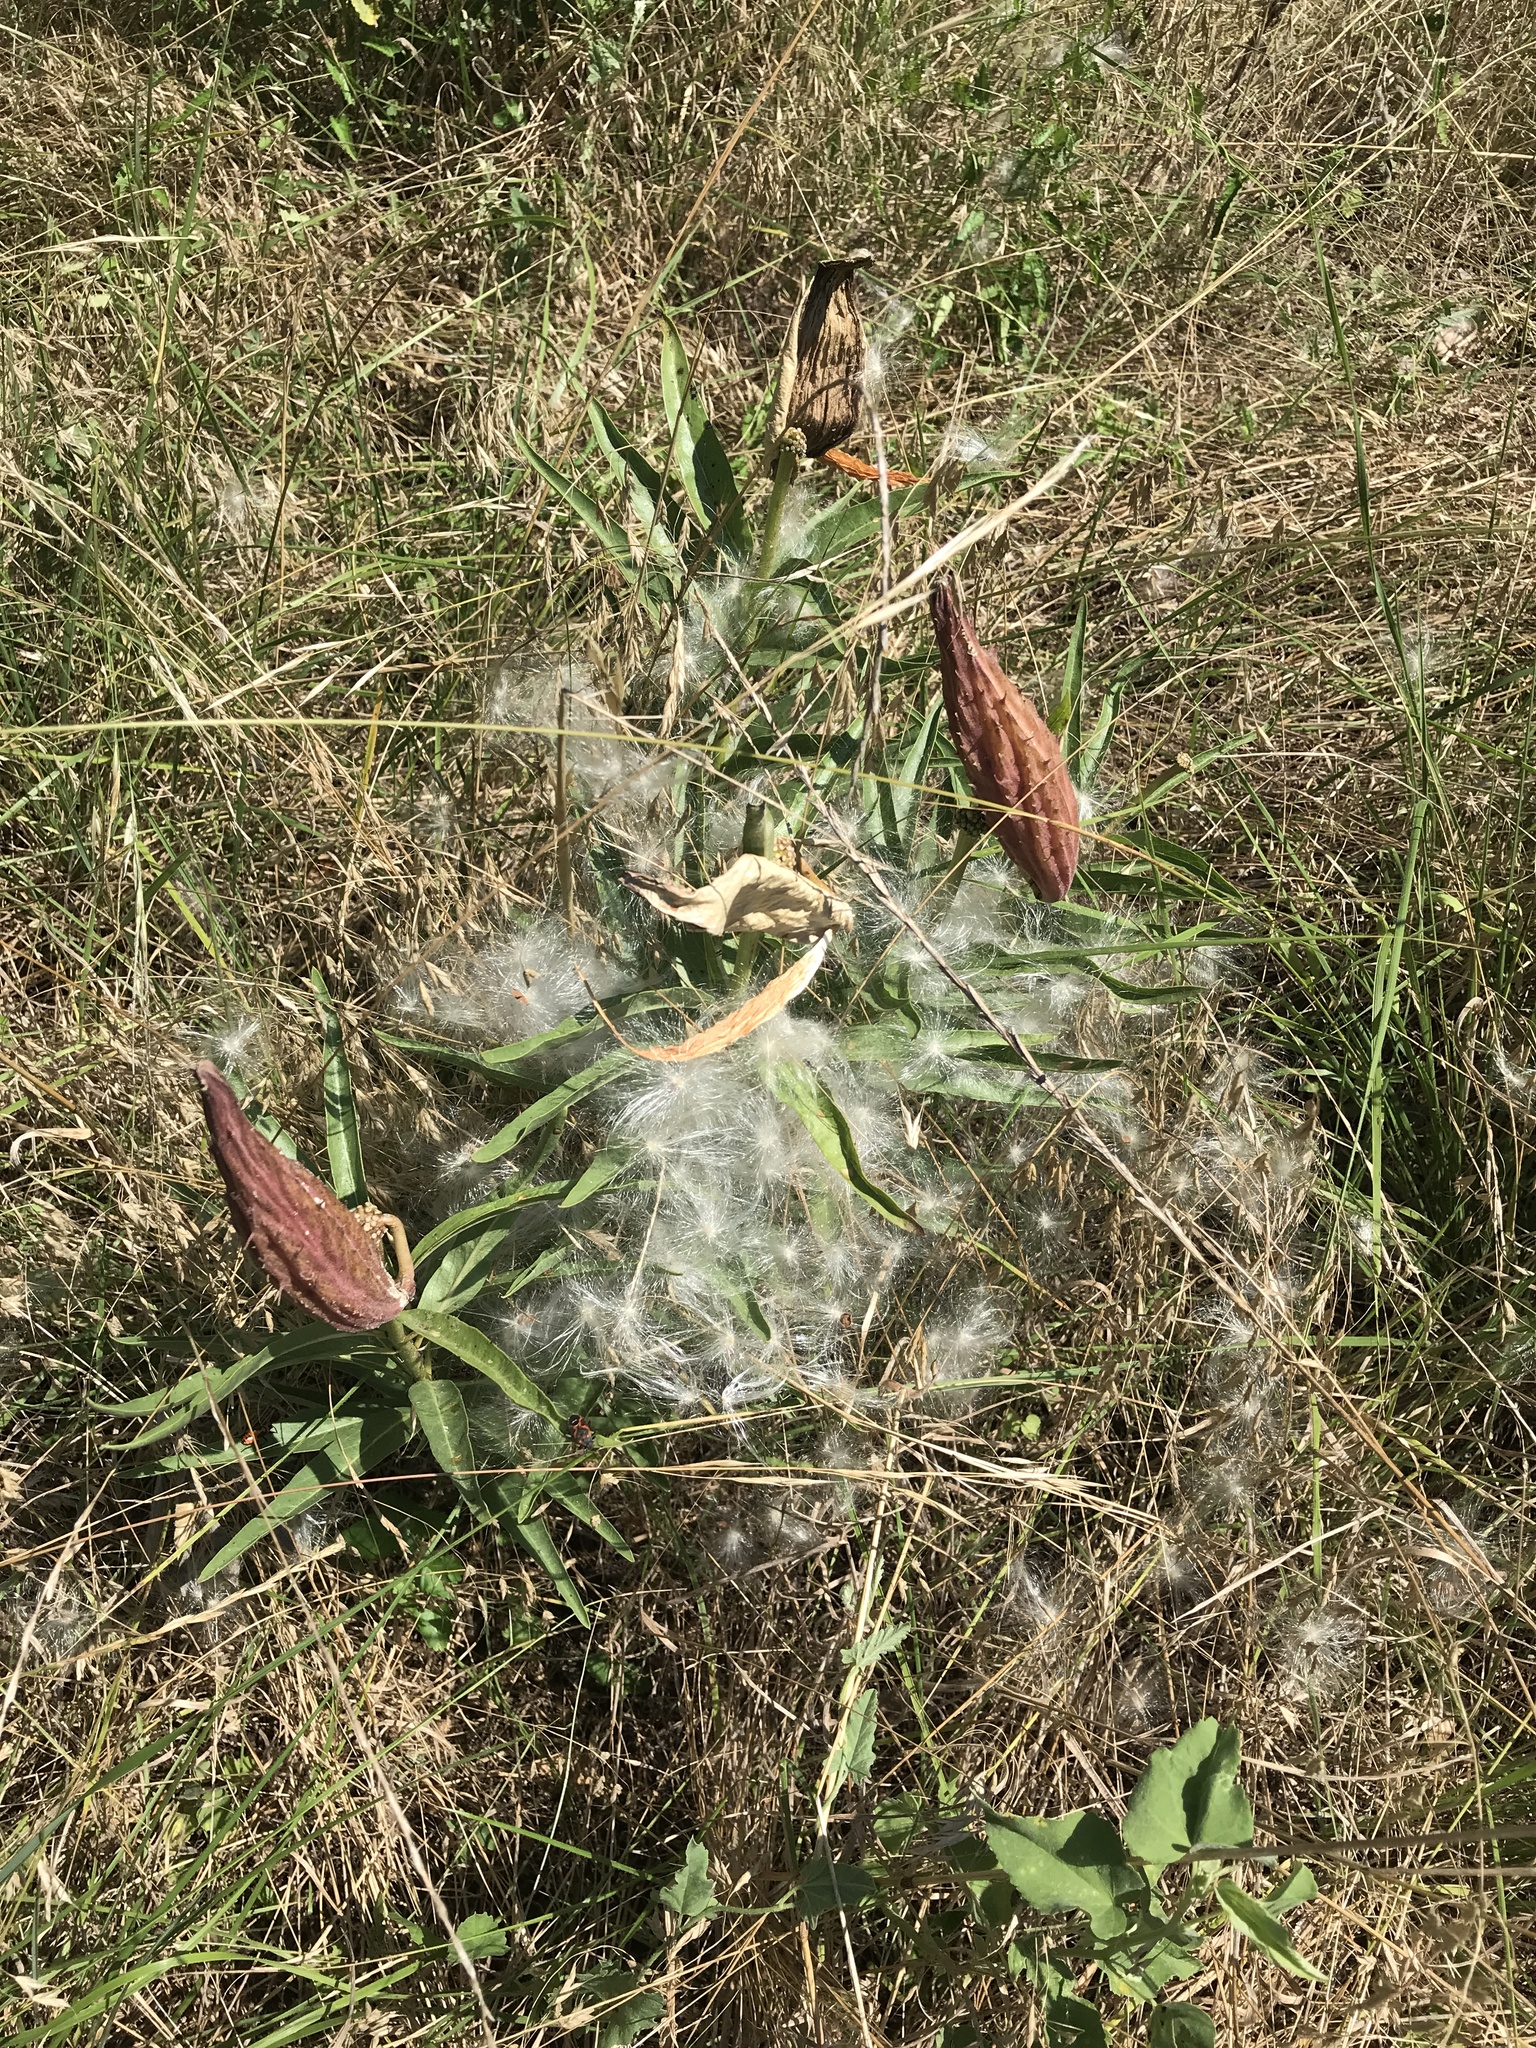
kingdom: Plantae
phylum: Tracheophyta
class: Magnoliopsida
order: Gentianales
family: Apocynaceae
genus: Asclepias
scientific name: Asclepias asperula
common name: Antelope horns
